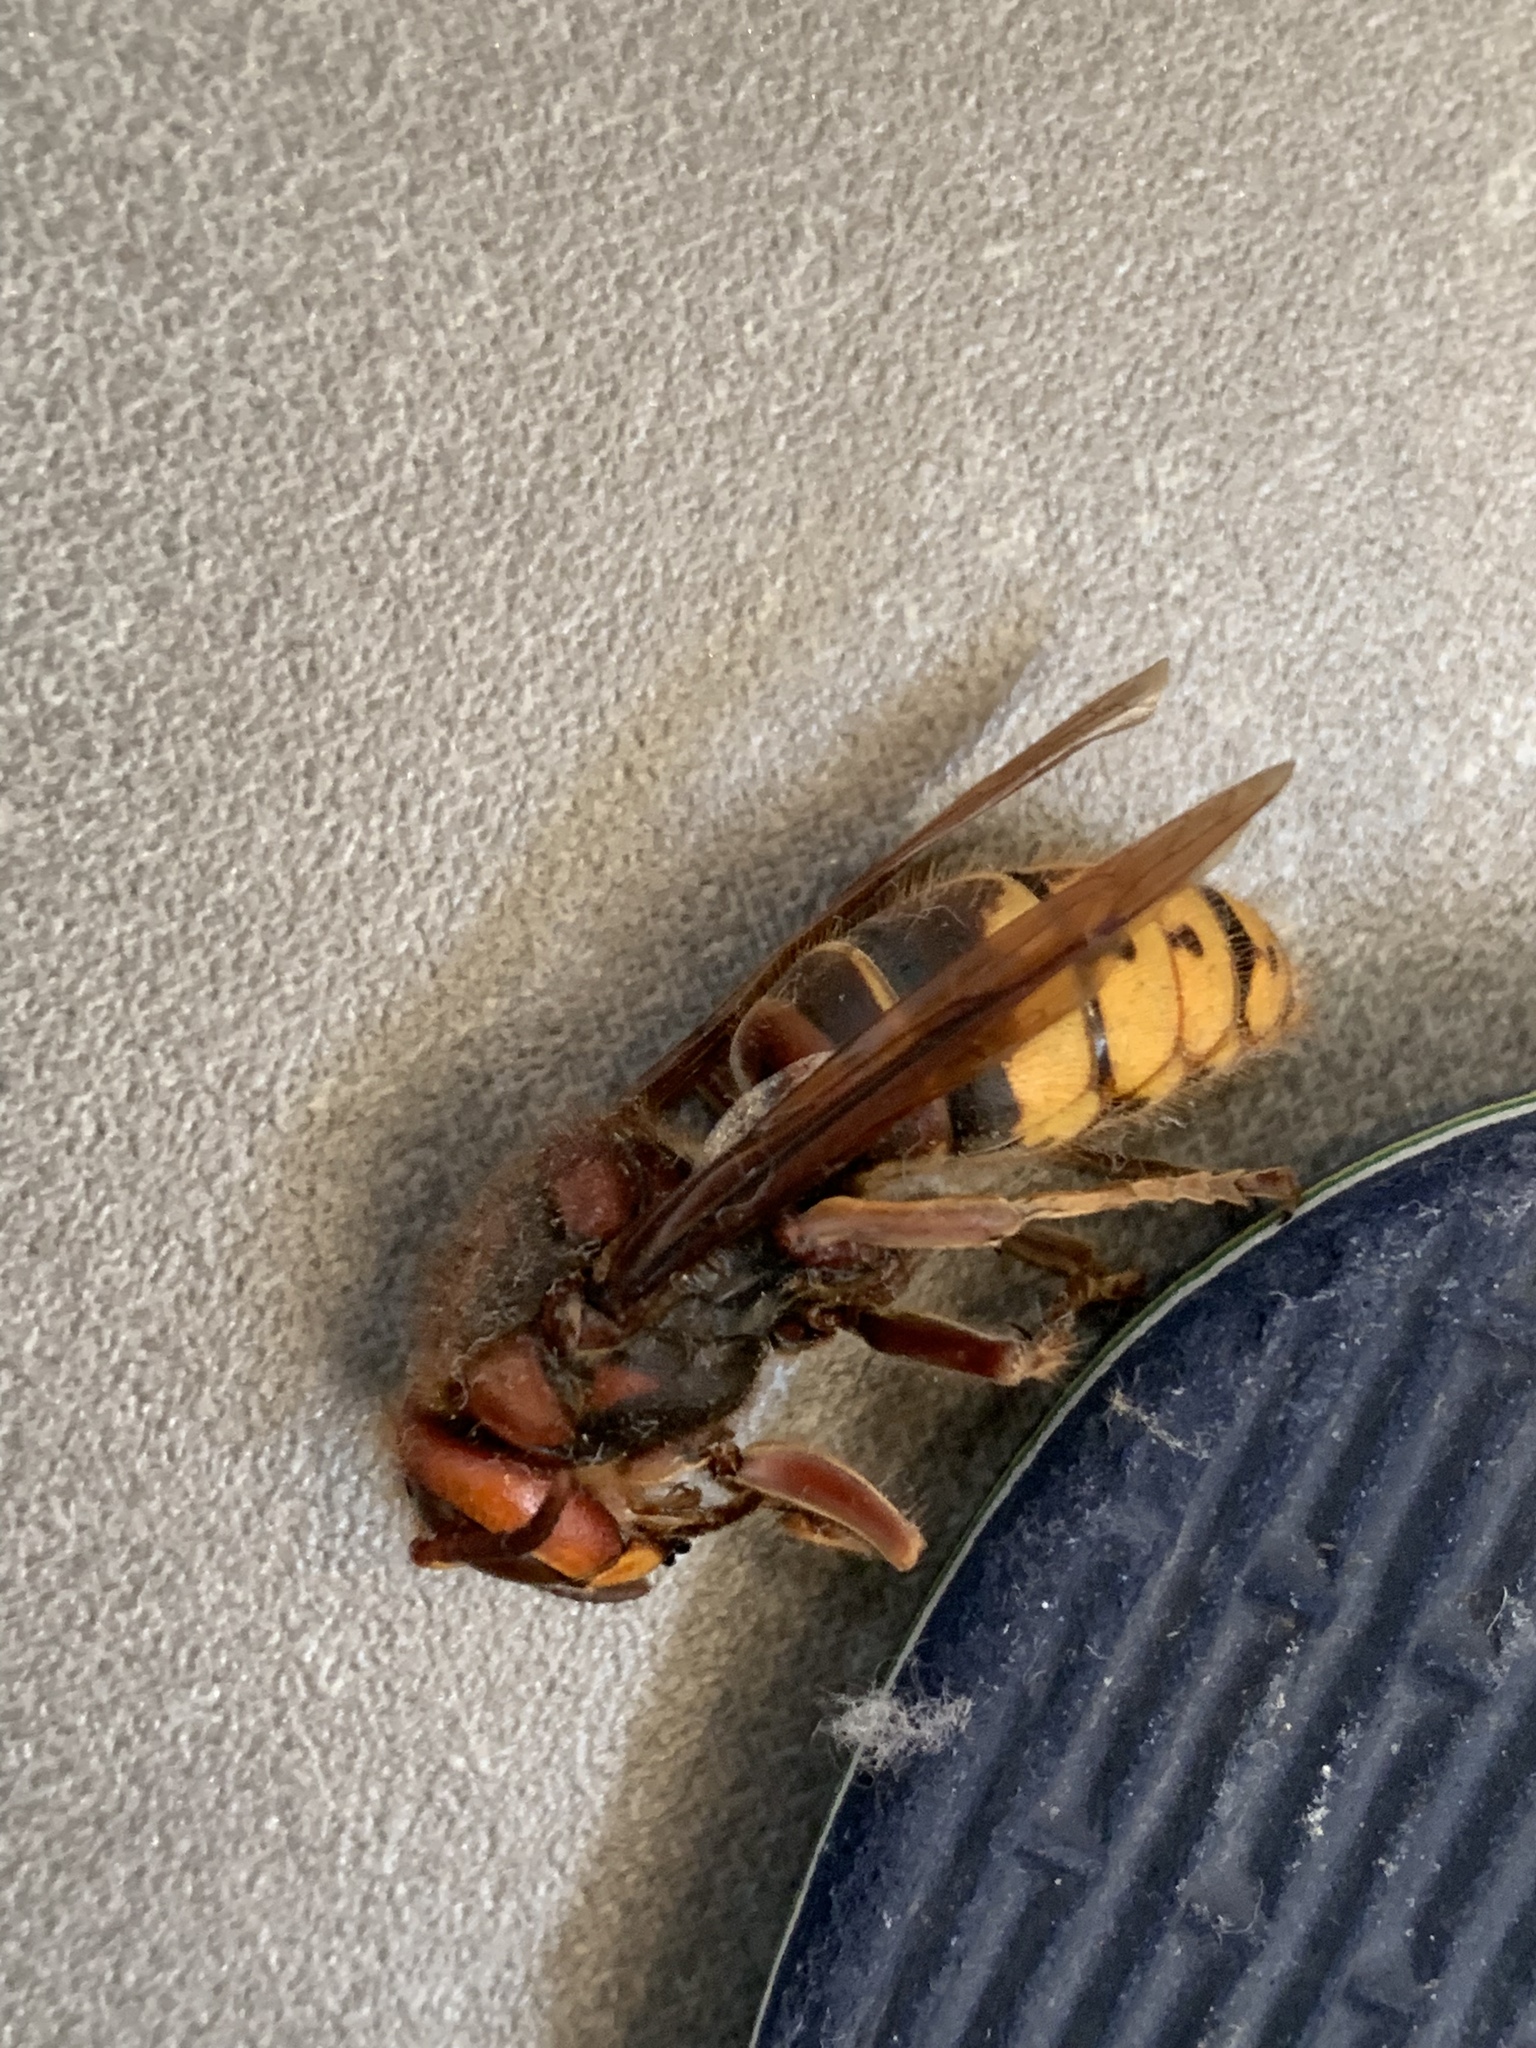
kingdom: Animalia
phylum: Arthropoda
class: Insecta
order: Hymenoptera
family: Vespidae
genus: Vespa
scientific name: Vespa crabro
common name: Hornet
